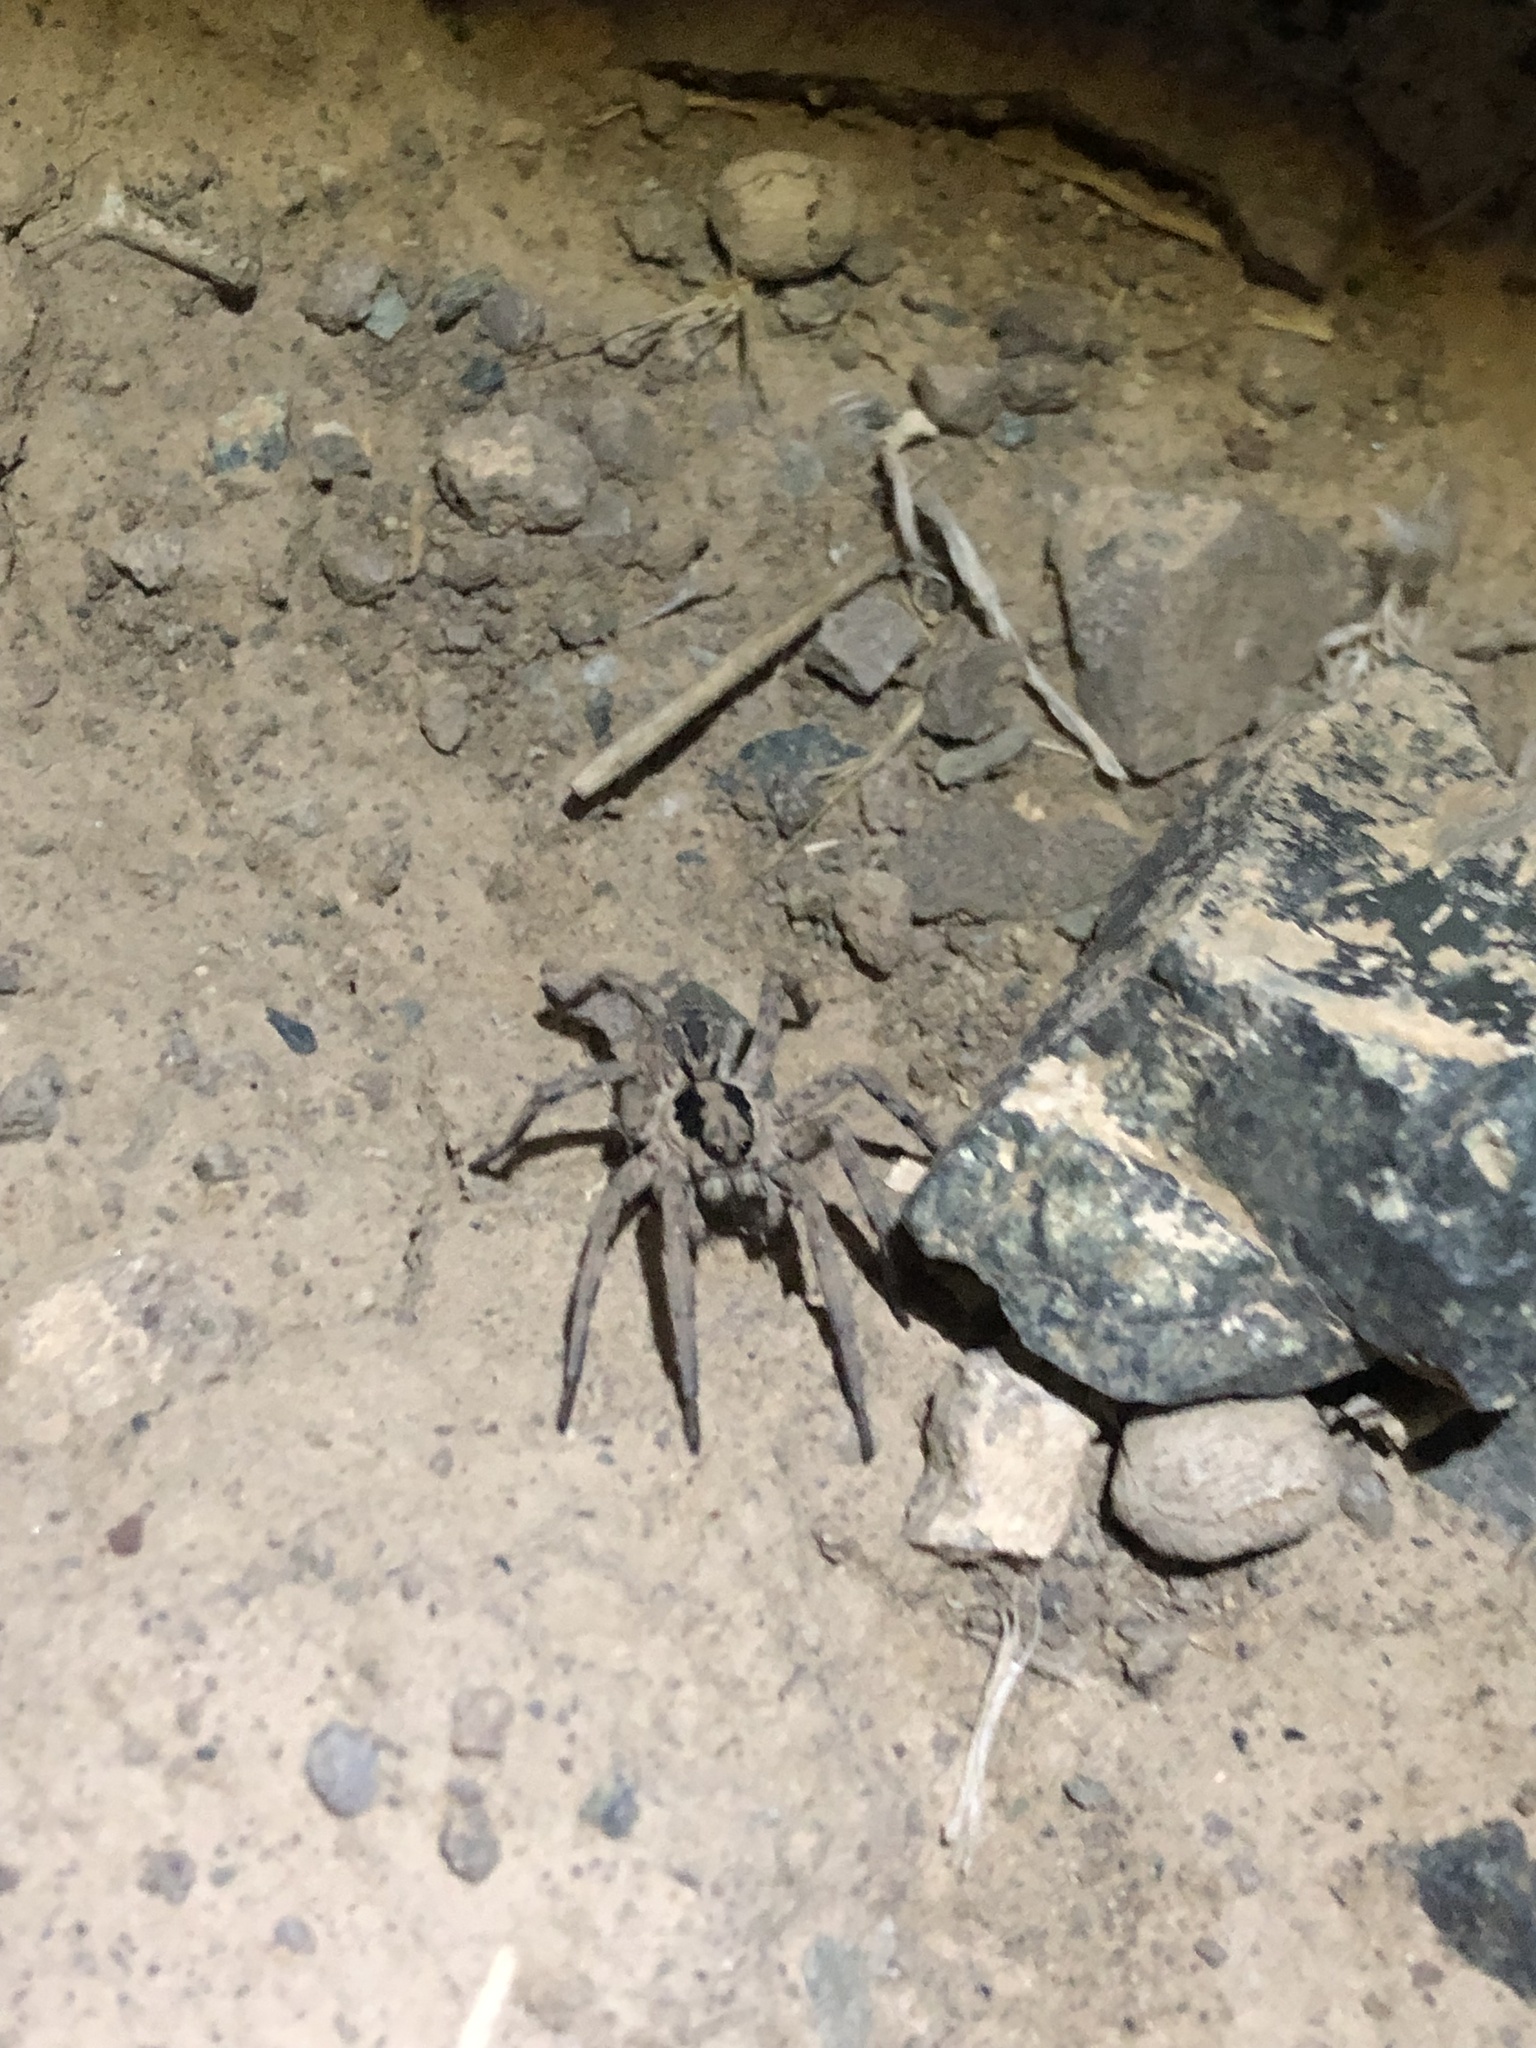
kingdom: Animalia
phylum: Arthropoda
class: Arachnida
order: Araneae
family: Lycosidae
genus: Lycosa
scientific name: Lycosa praegrandis
